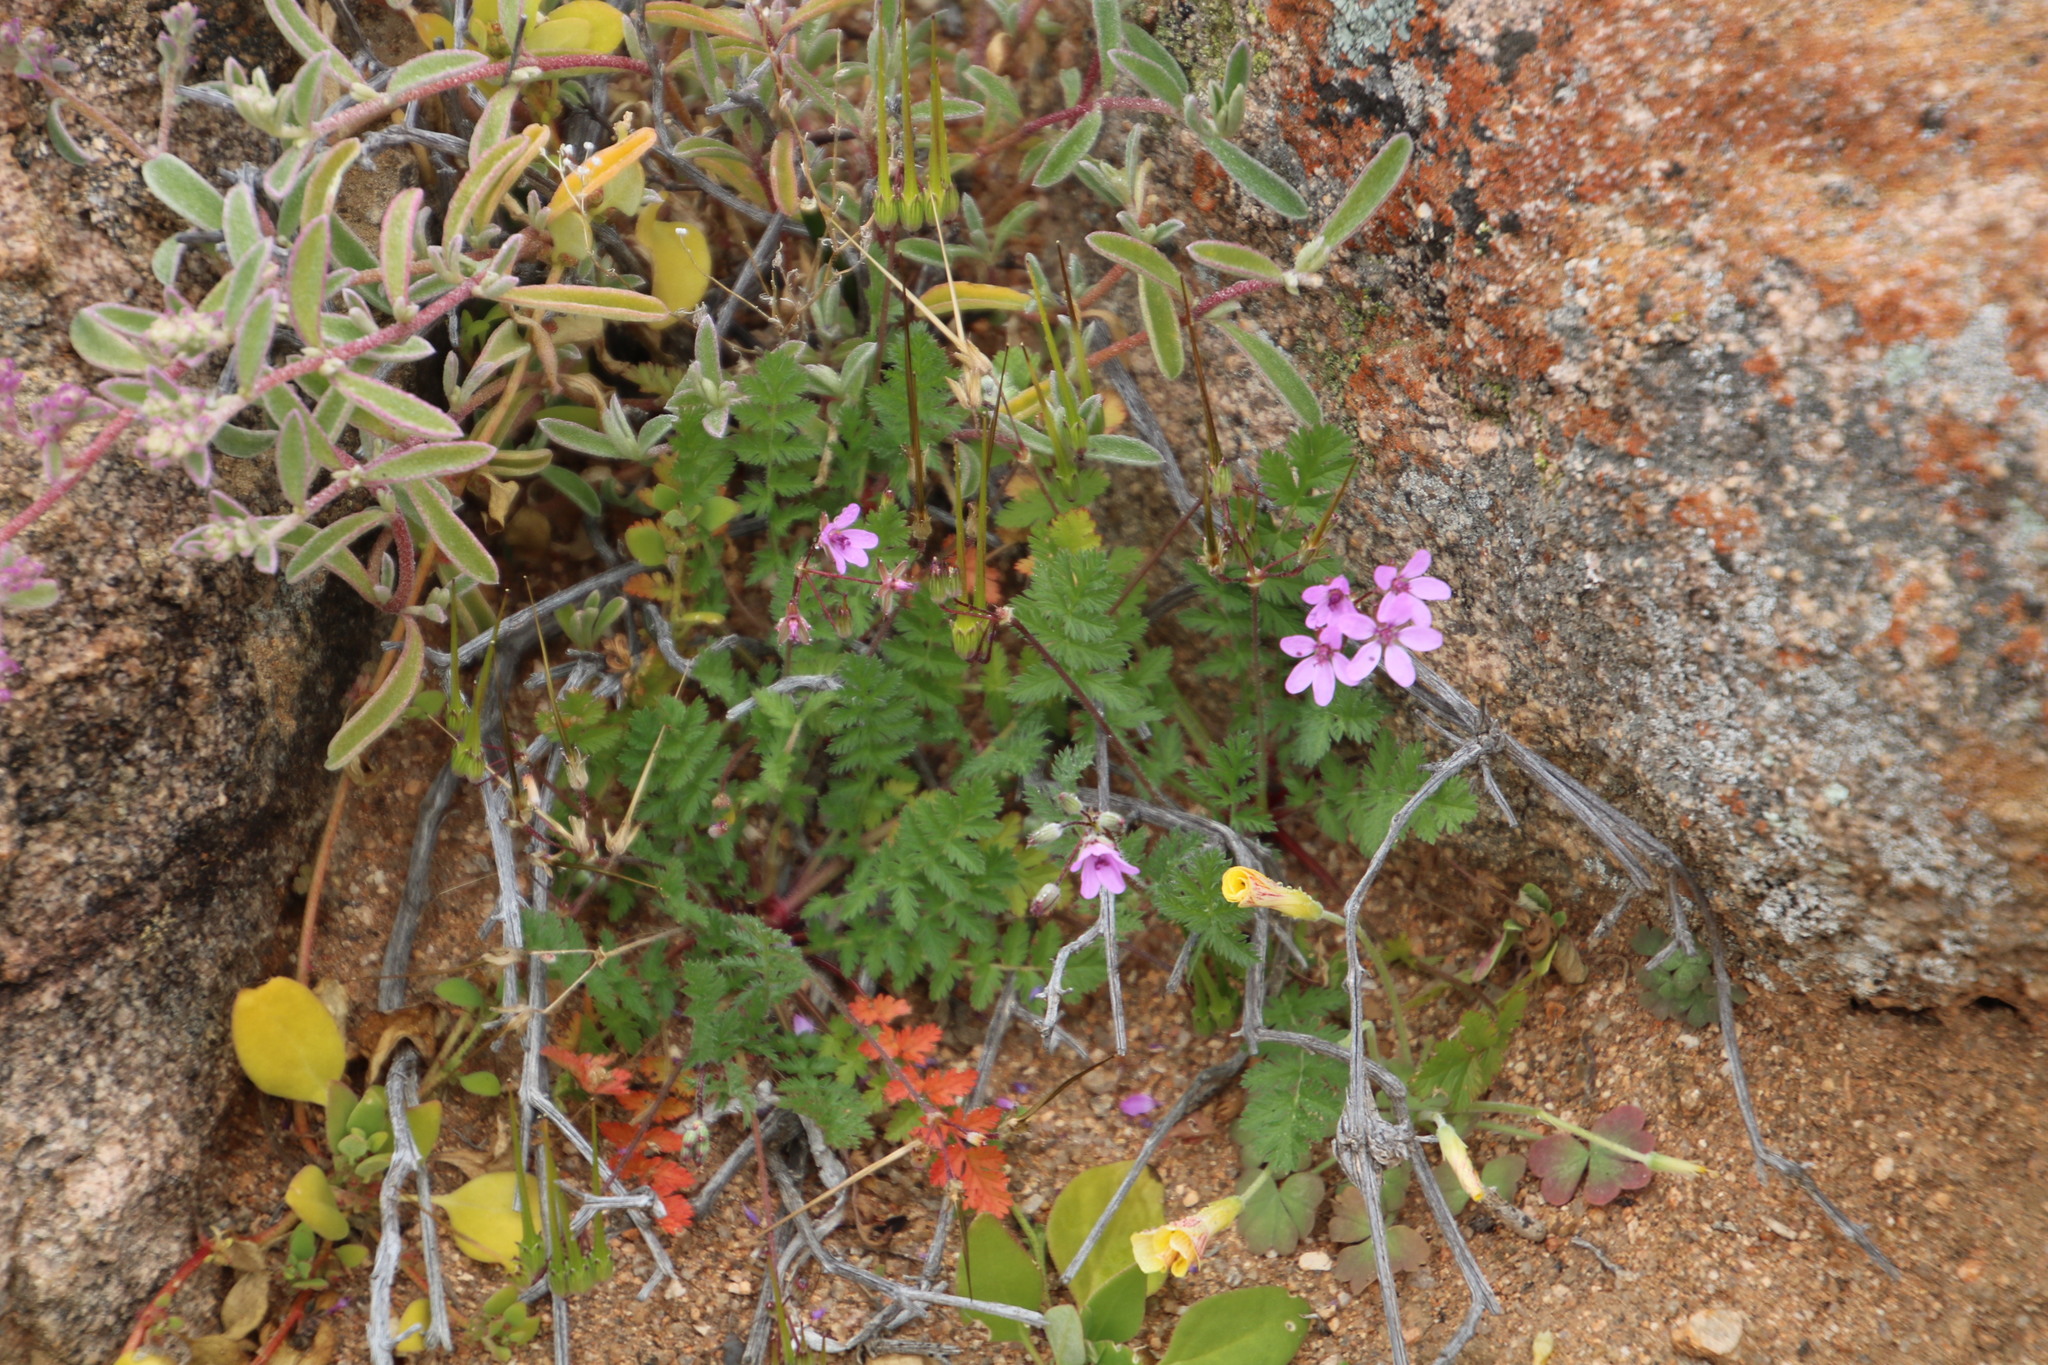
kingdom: Plantae
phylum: Tracheophyta
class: Magnoliopsida
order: Geraniales
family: Geraniaceae
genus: Erodium
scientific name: Erodium cicutarium
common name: Common stork's-bill
